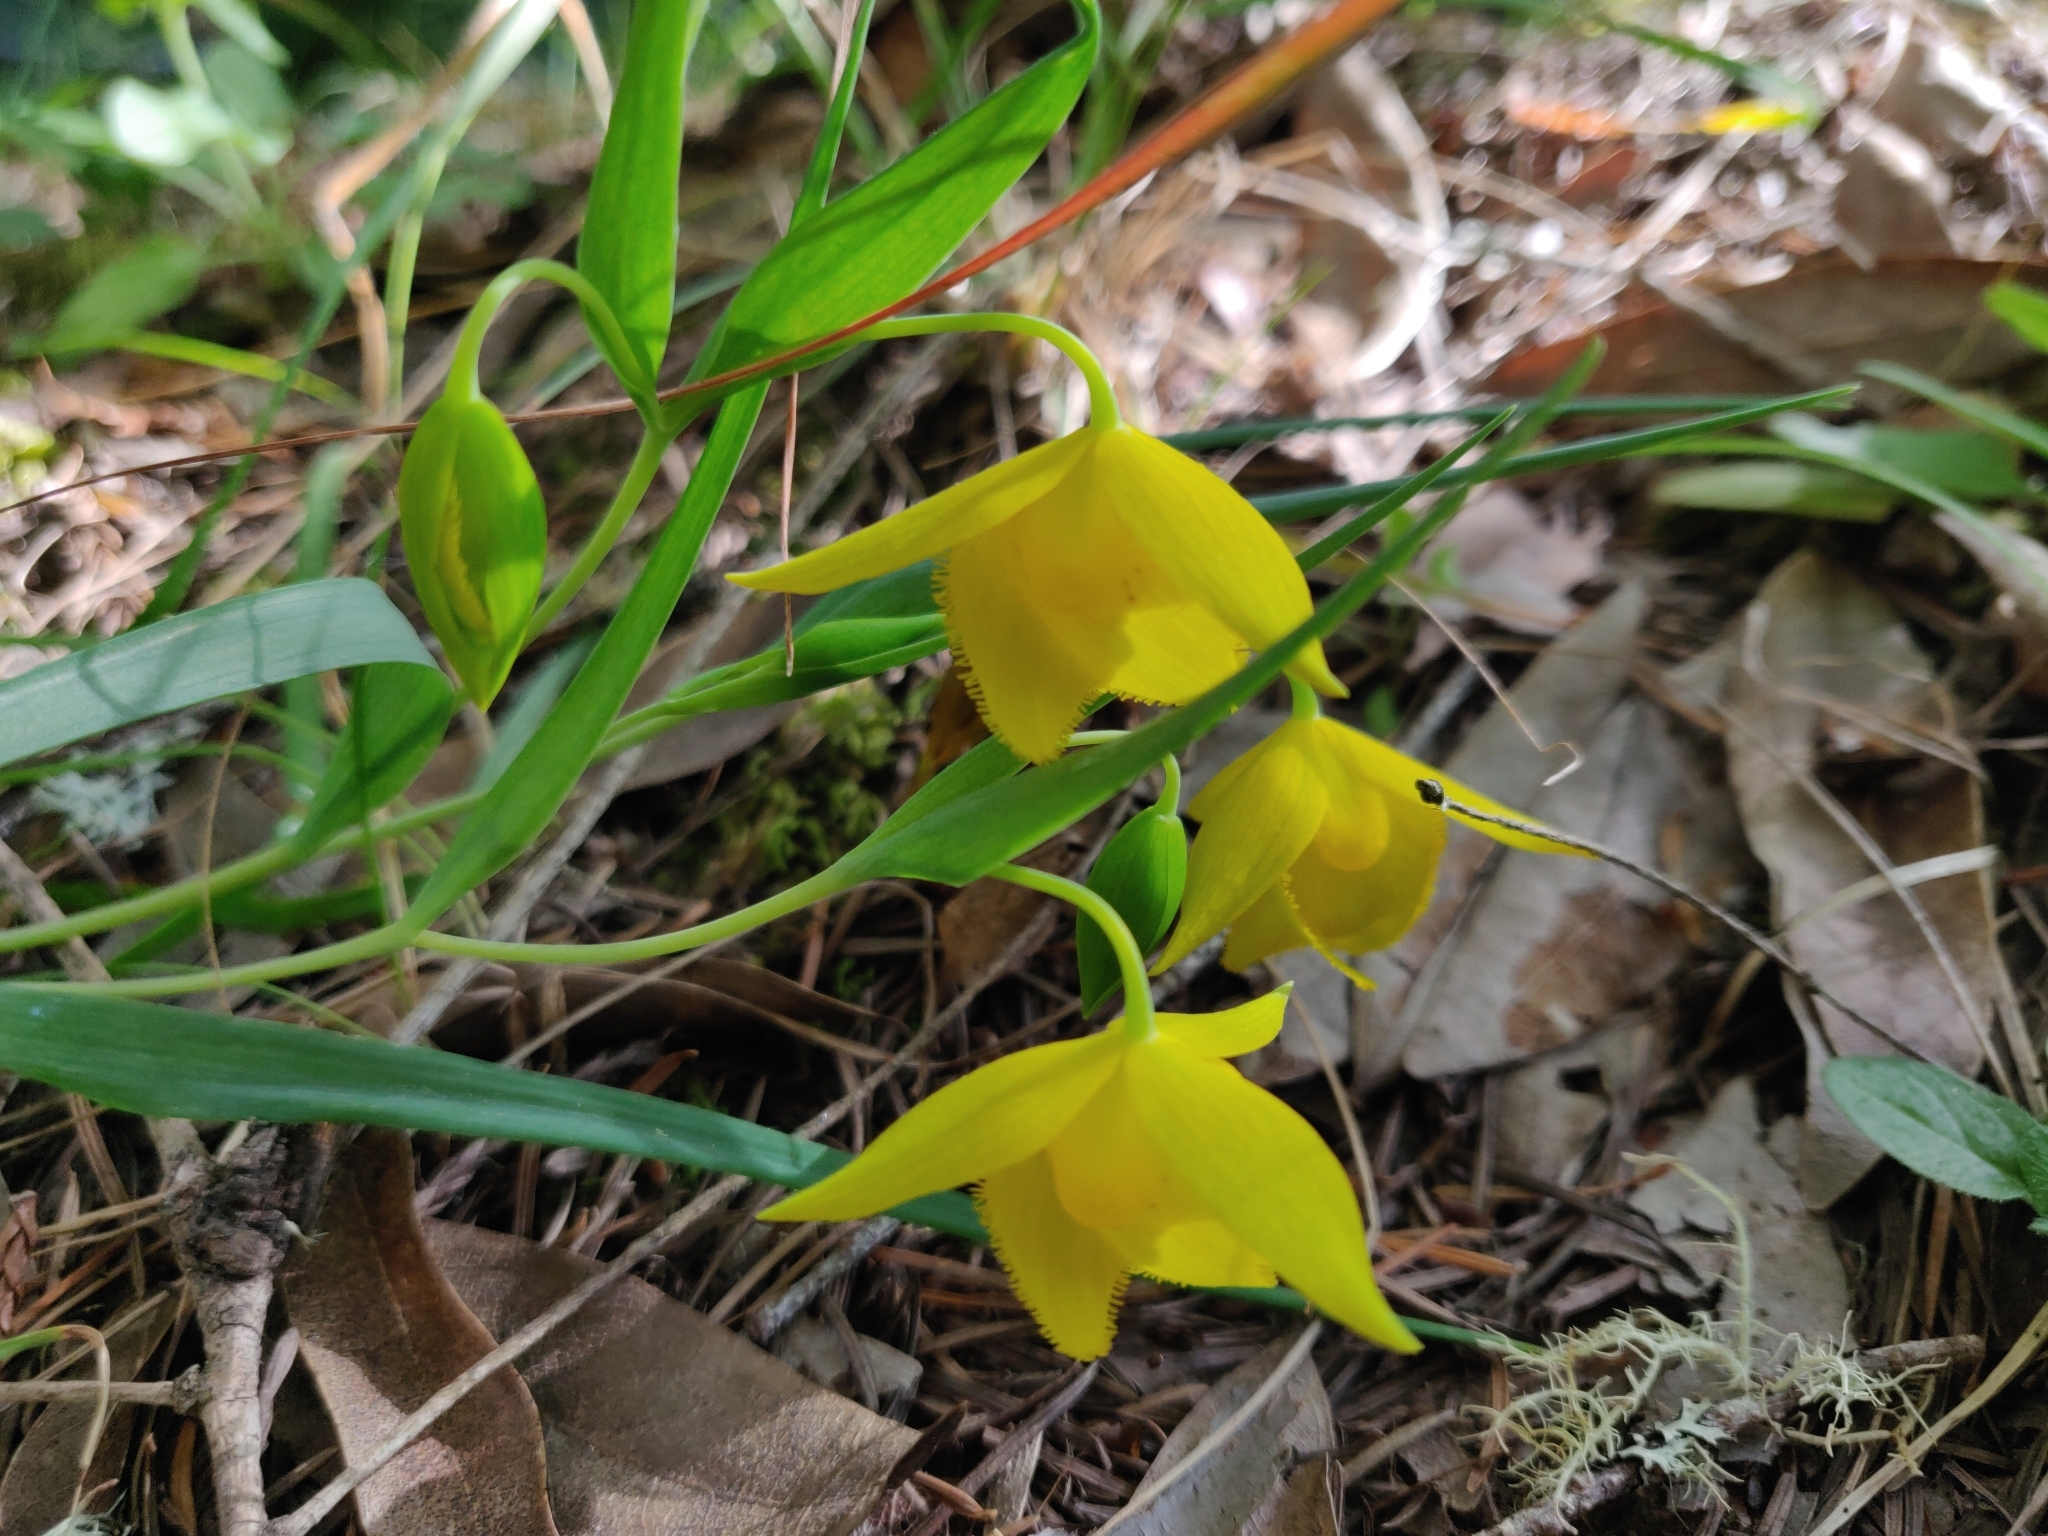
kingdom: Plantae
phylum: Tracheophyta
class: Liliopsida
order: Liliales
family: Liliaceae
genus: Calochortus
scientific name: Calochortus amabilis
